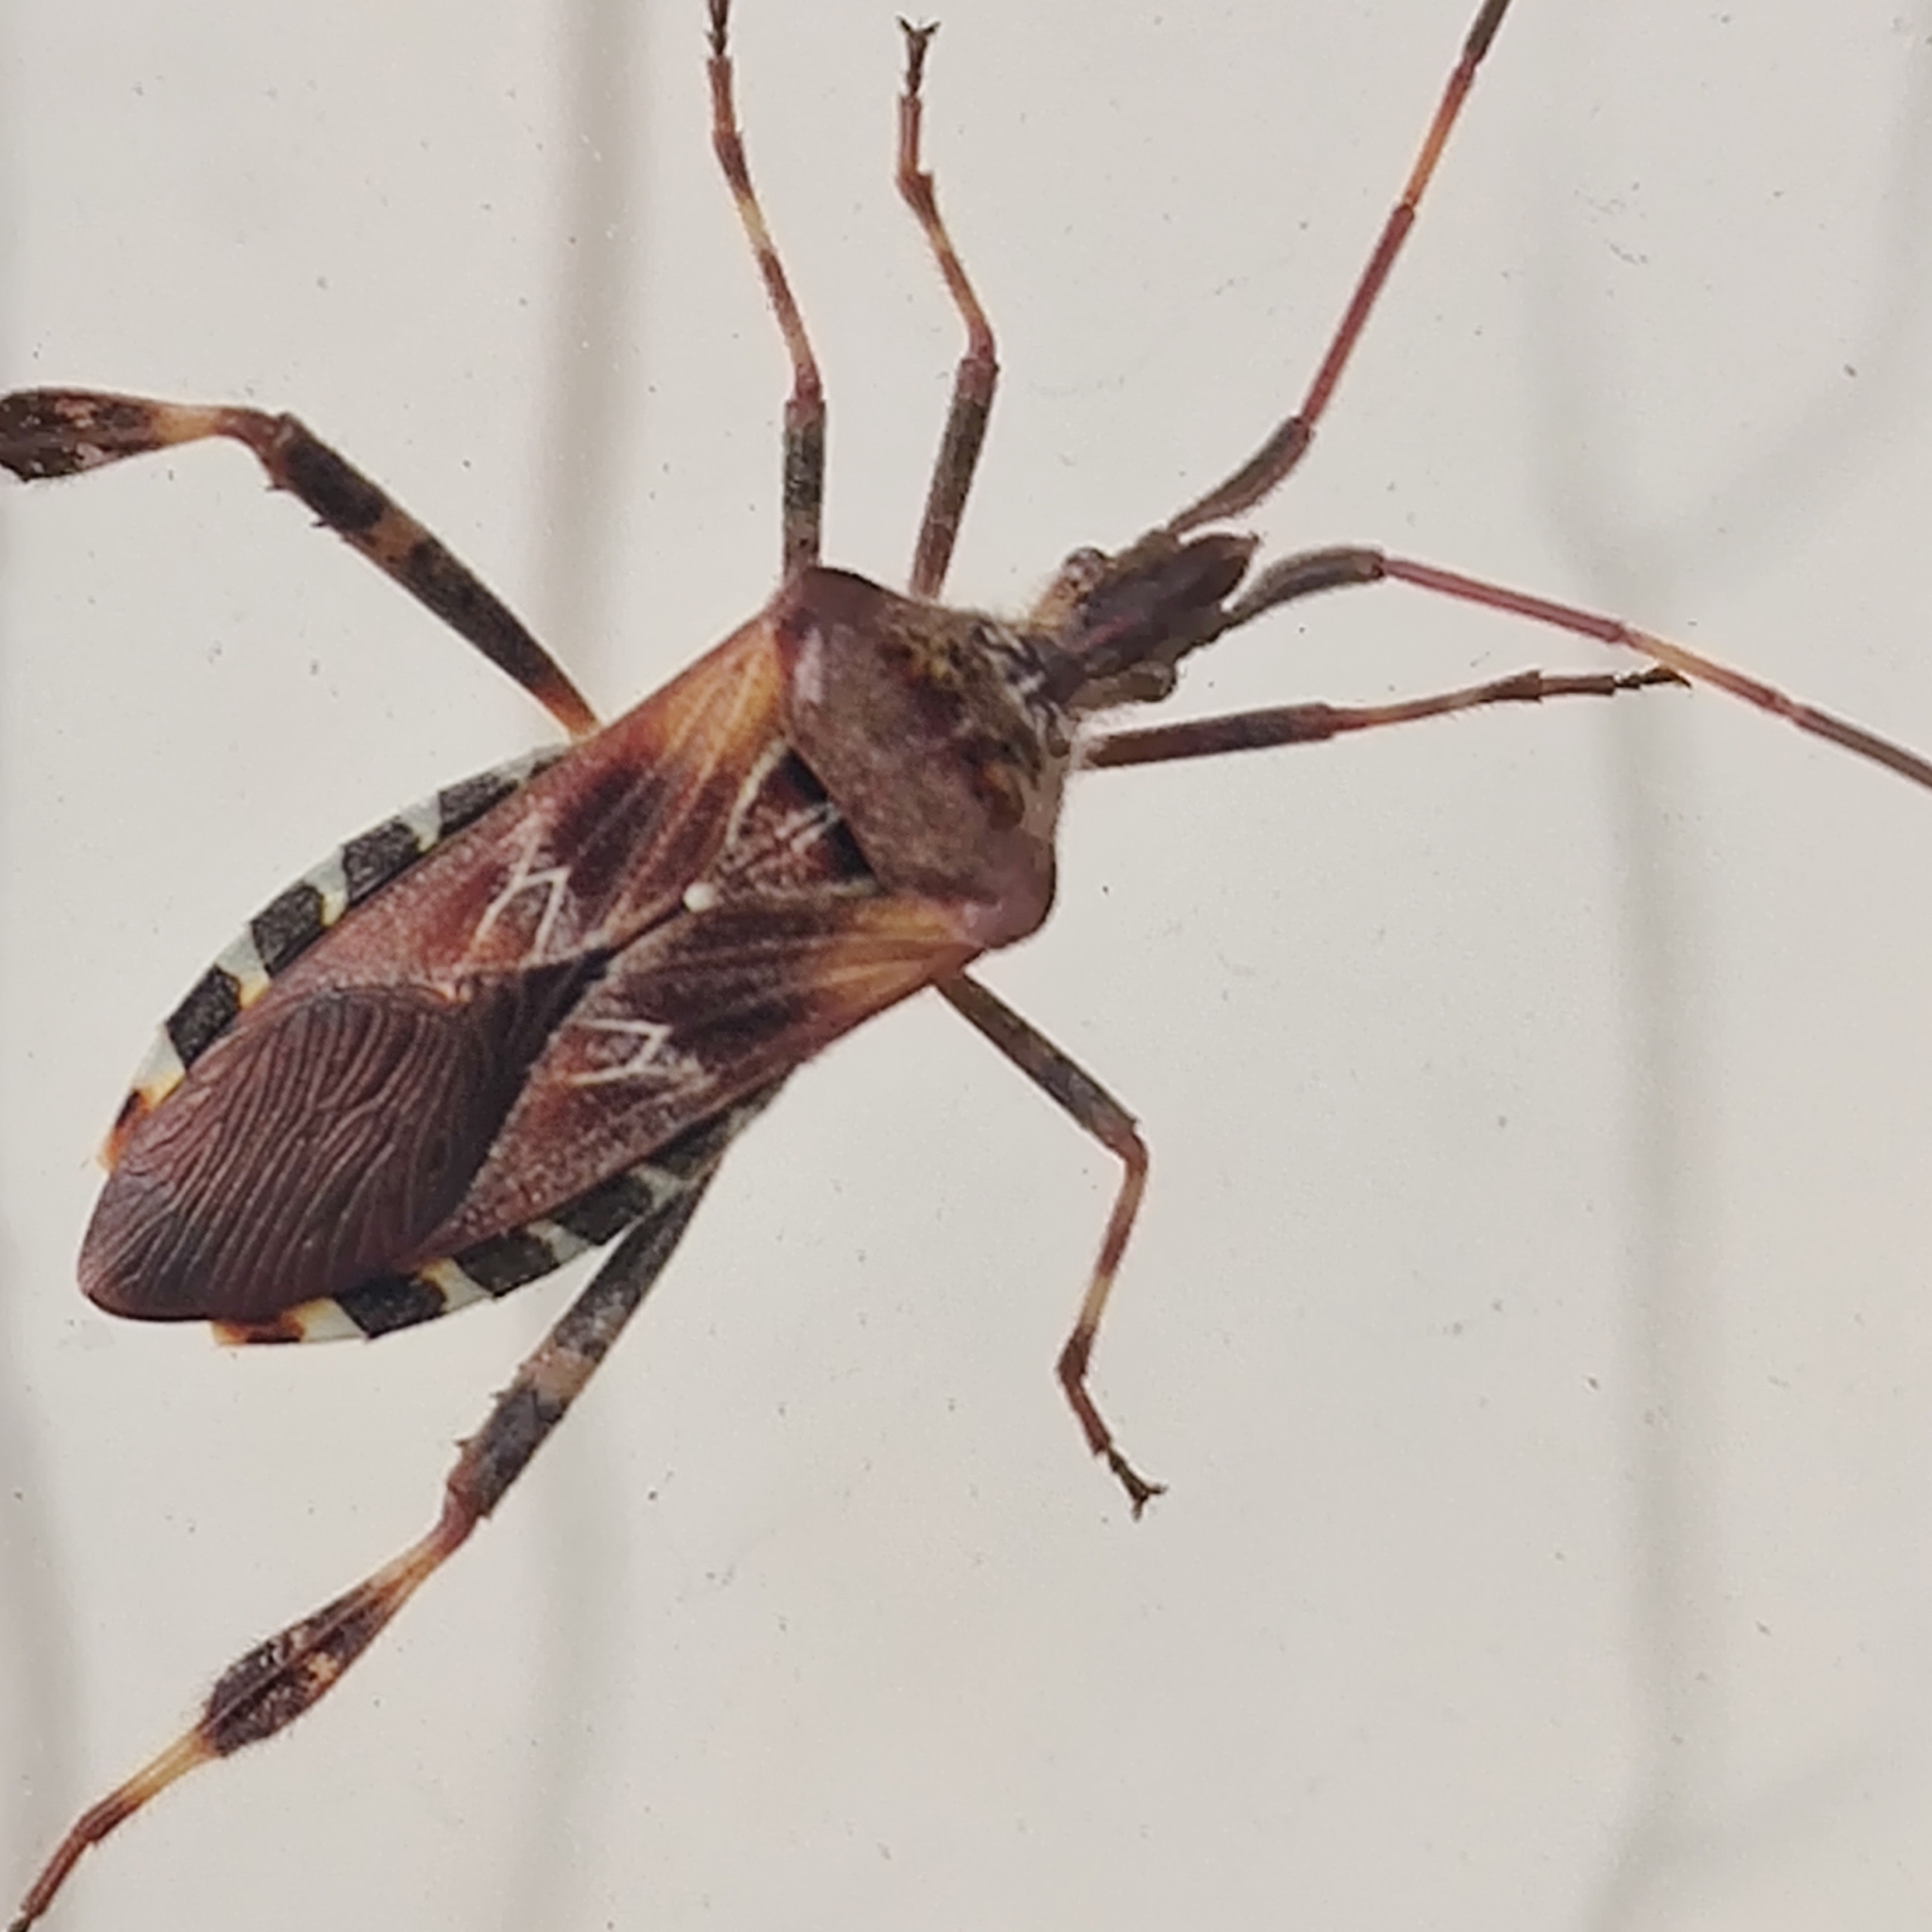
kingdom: Animalia
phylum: Arthropoda
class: Insecta
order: Hemiptera
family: Coreidae
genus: Leptoglossus
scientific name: Leptoglossus occidentalis
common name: Western conifer-seed bug
